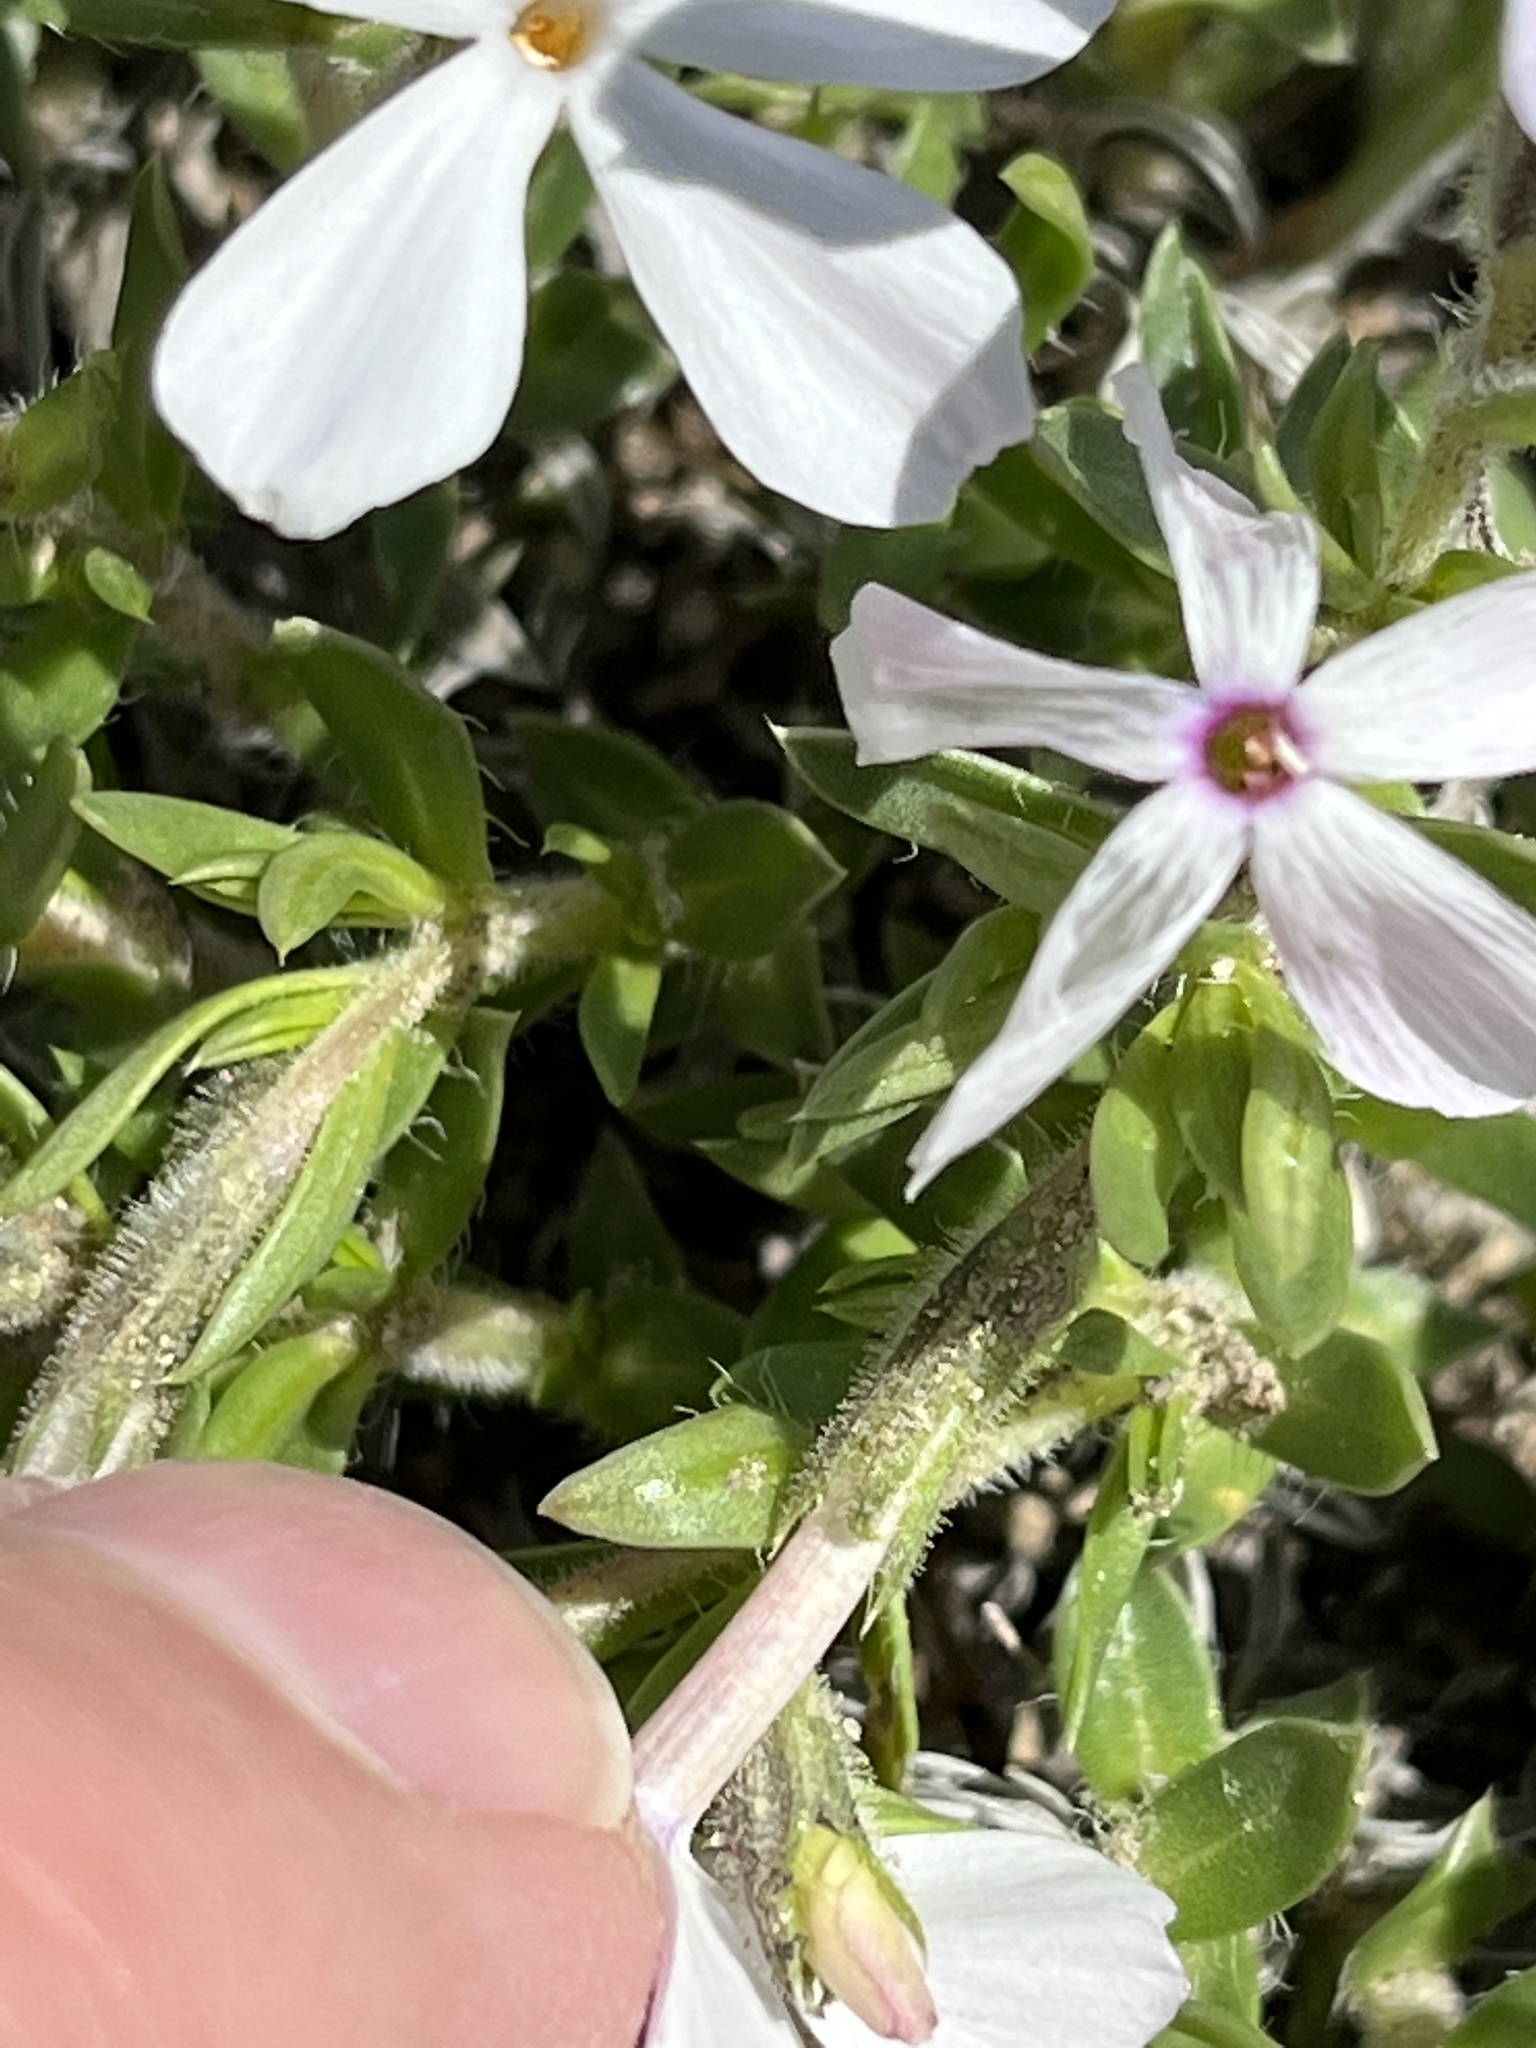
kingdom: Plantae
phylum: Tracheophyta
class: Magnoliopsida
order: Ericales
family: Polemoniaceae
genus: Phlox
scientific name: Phlox alyssifolia
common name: Blue phlox
